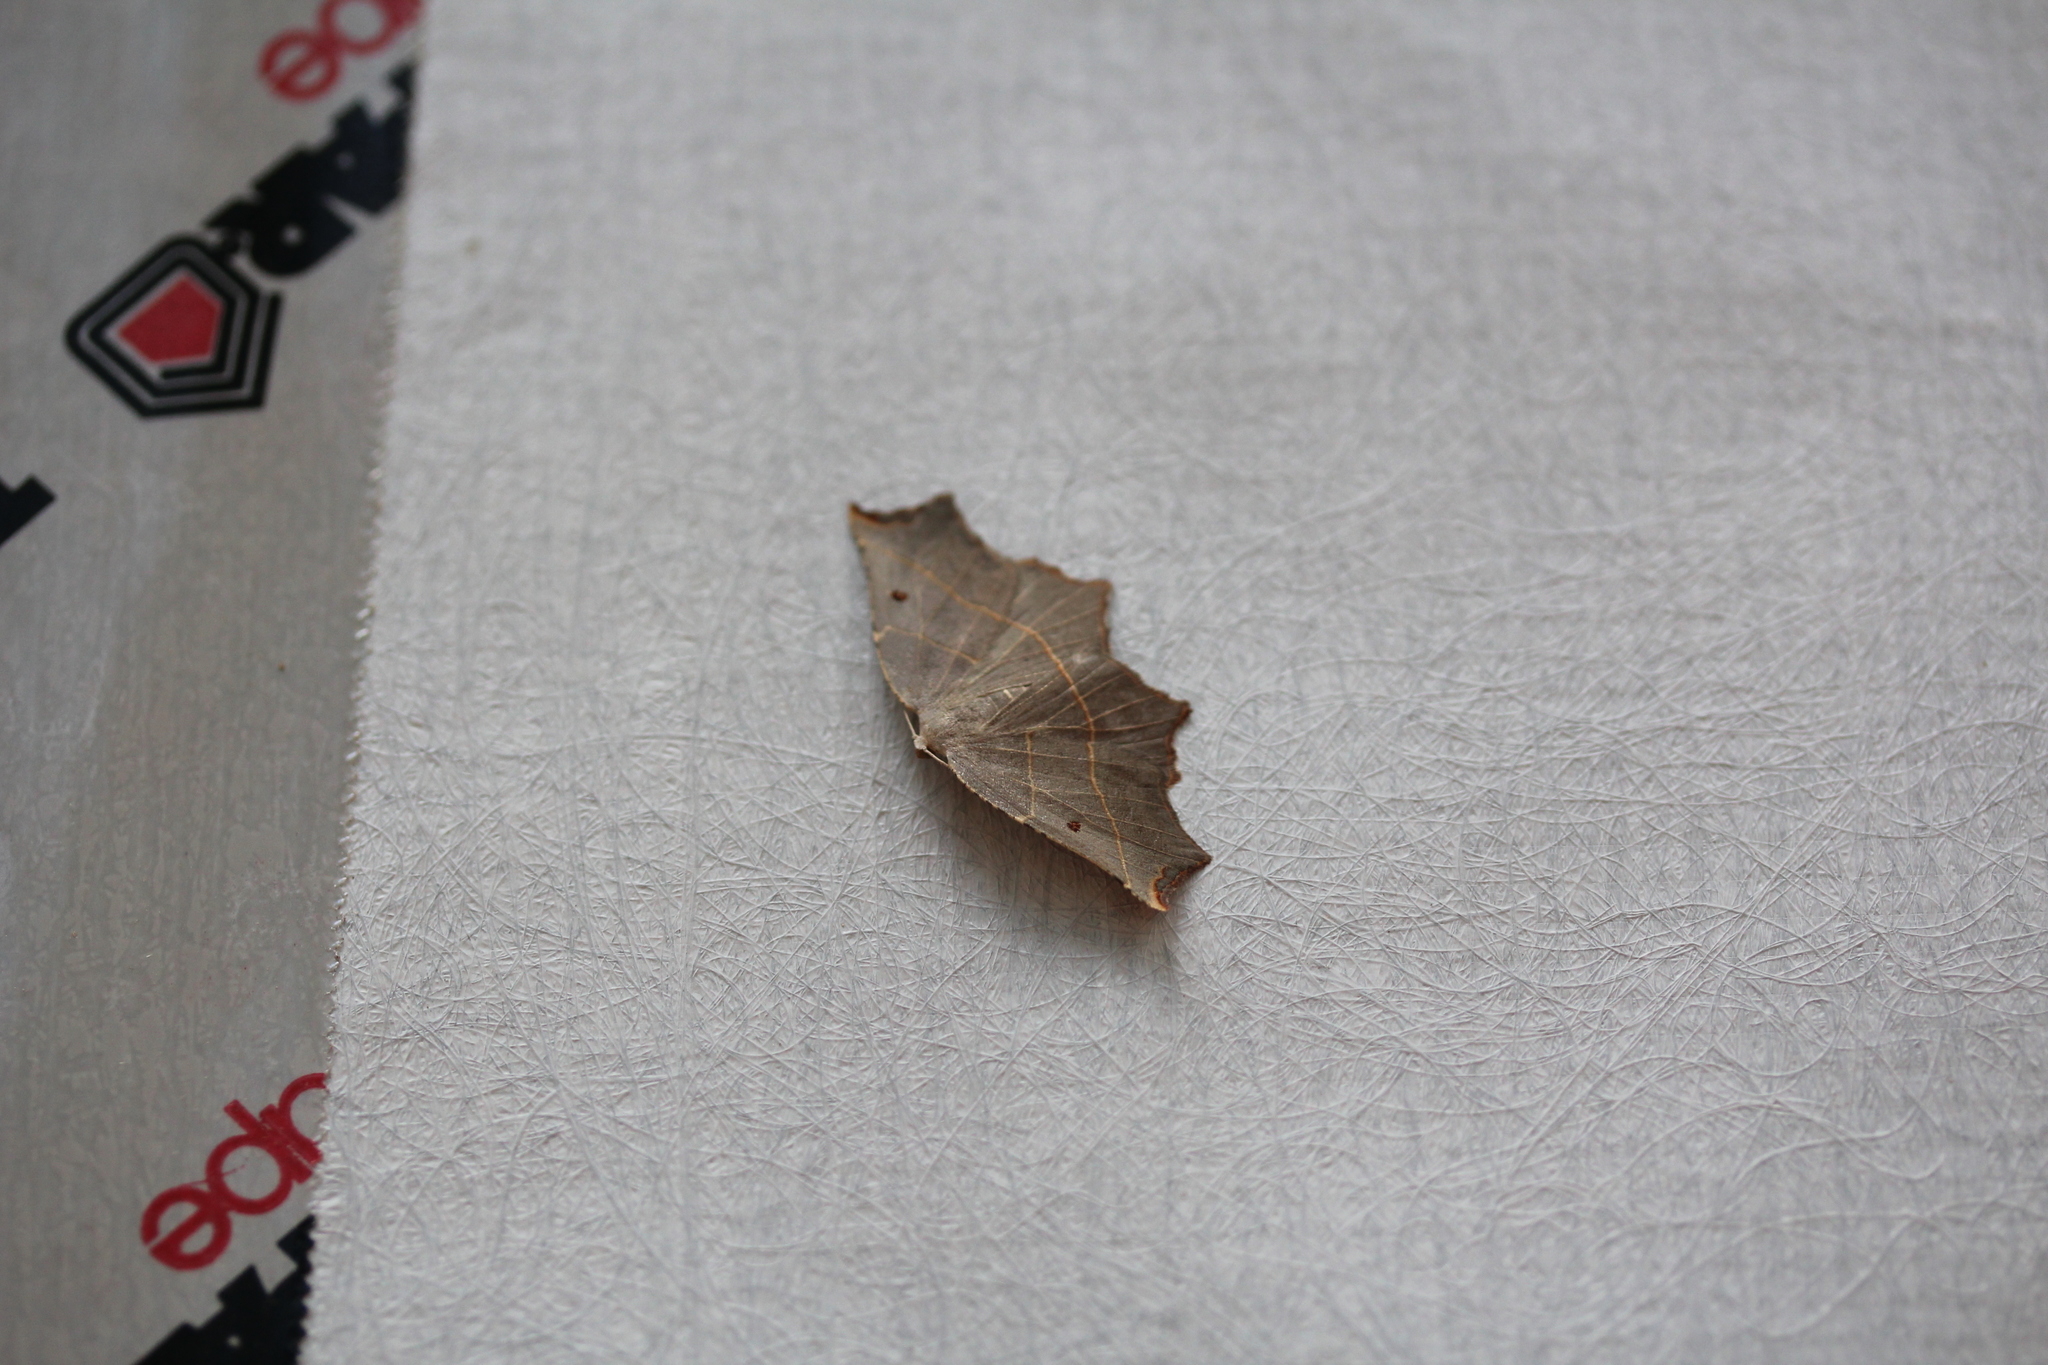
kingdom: Animalia
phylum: Arthropoda
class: Insecta
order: Lepidoptera
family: Geometridae
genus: Metanema
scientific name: Metanema inatomaria
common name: Pale metanema
